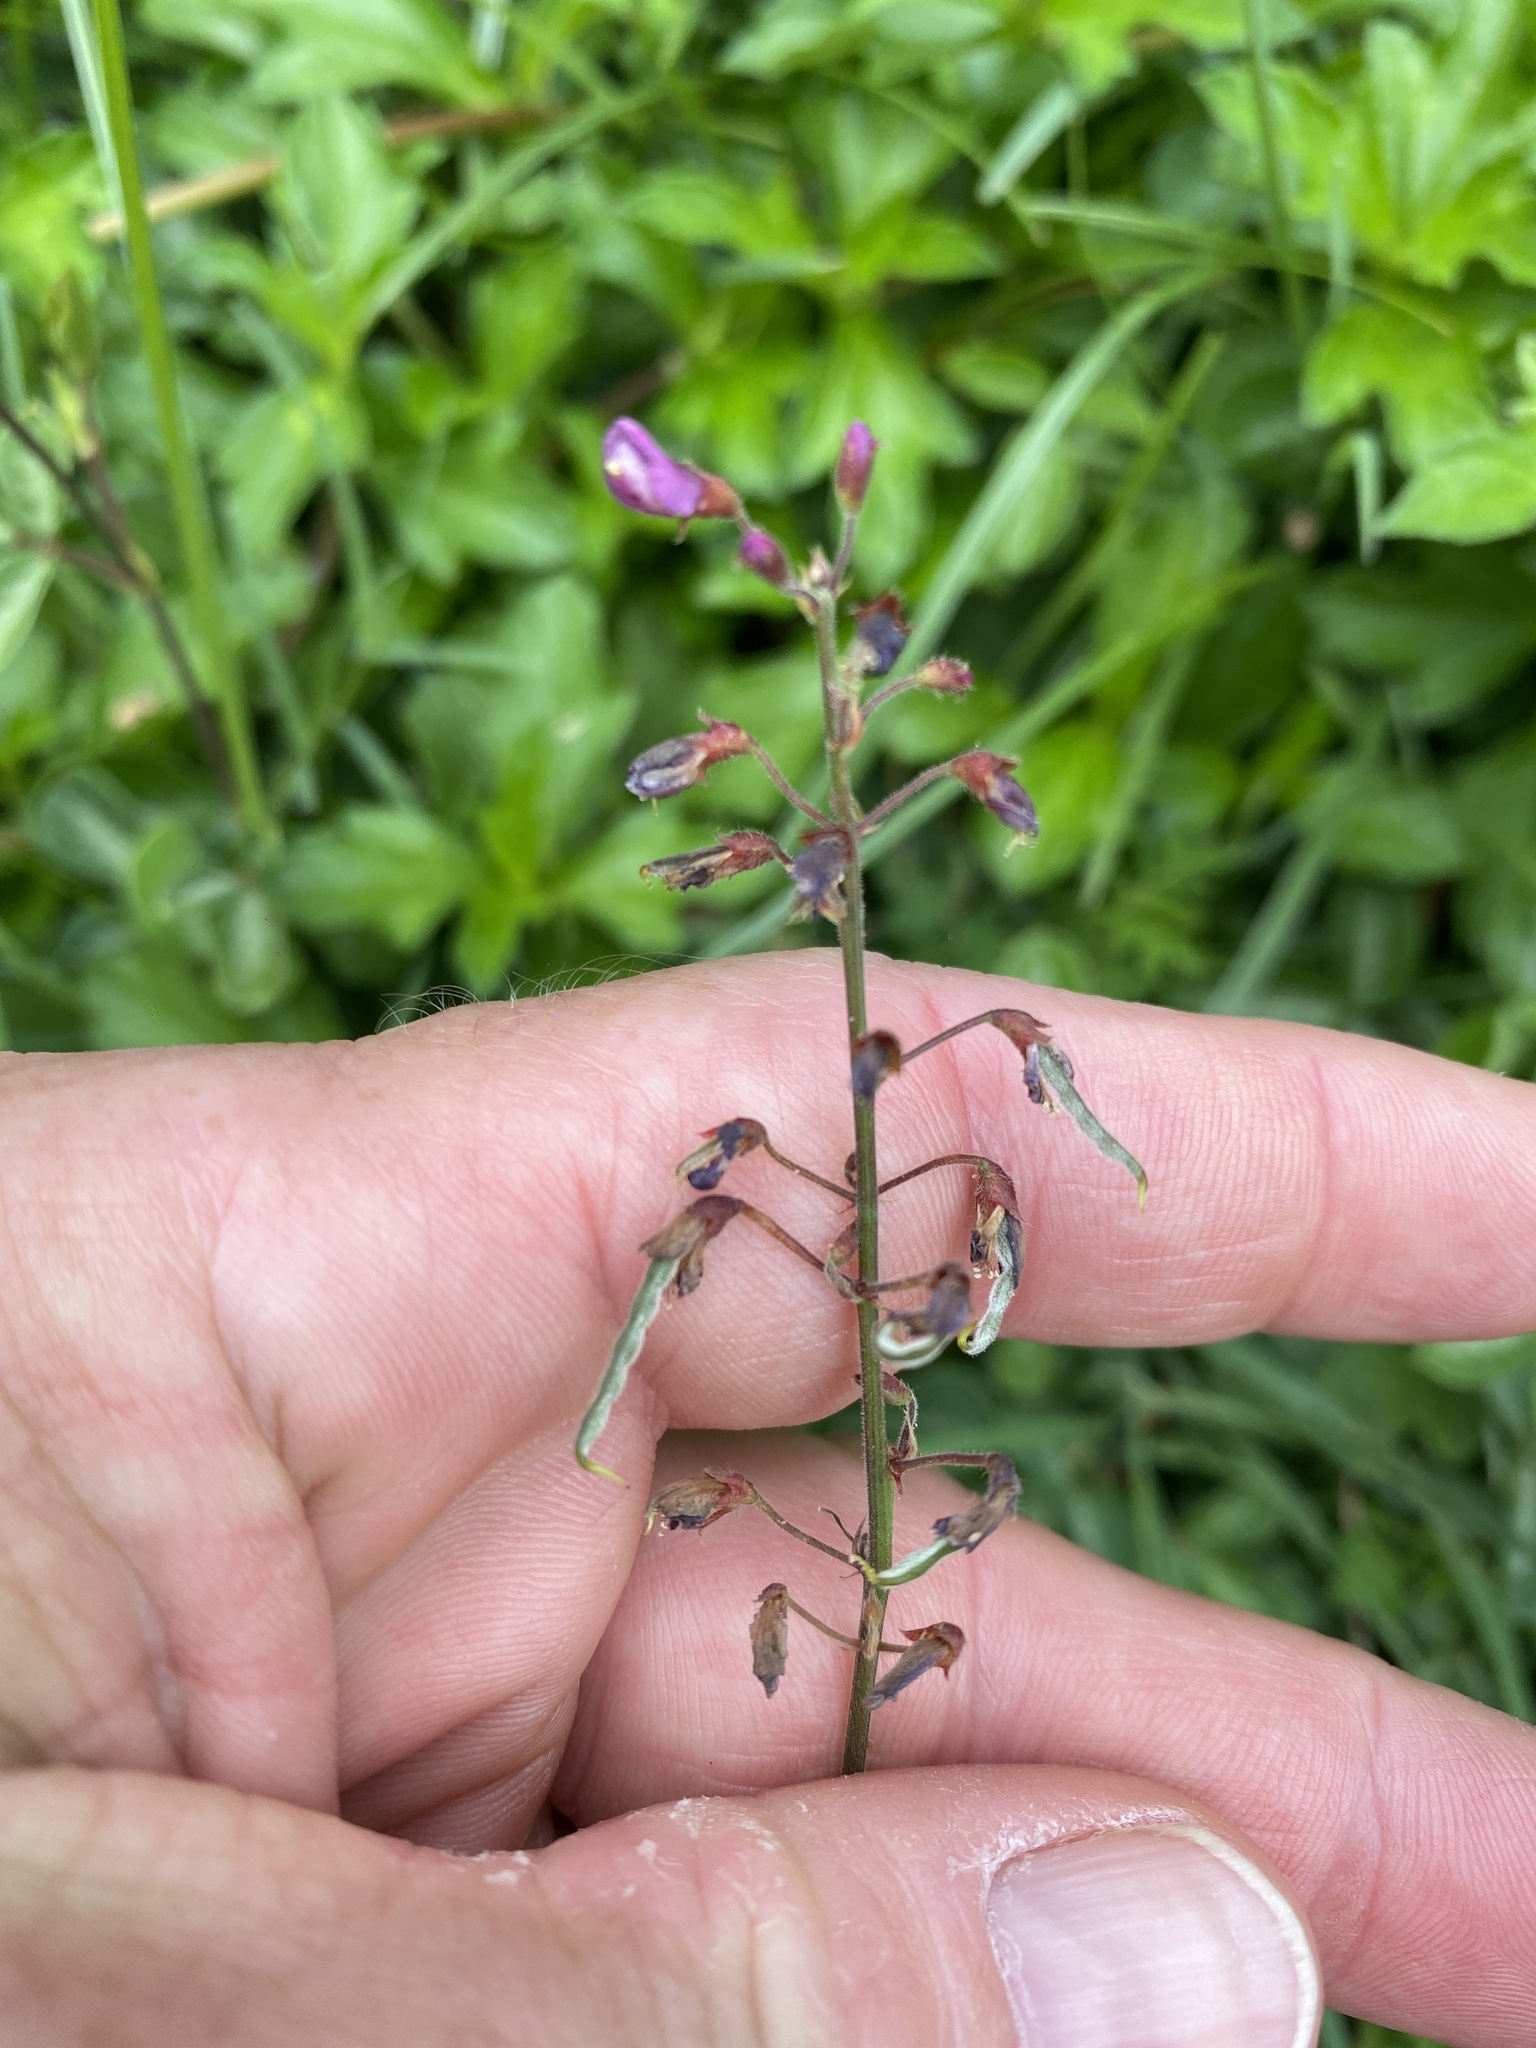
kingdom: Plantae
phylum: Tracheophyta
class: Magnoliopsida
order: Fabales
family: Fabaceae
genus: Desmodium
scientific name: Desmodium incanum
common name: Tickclover
